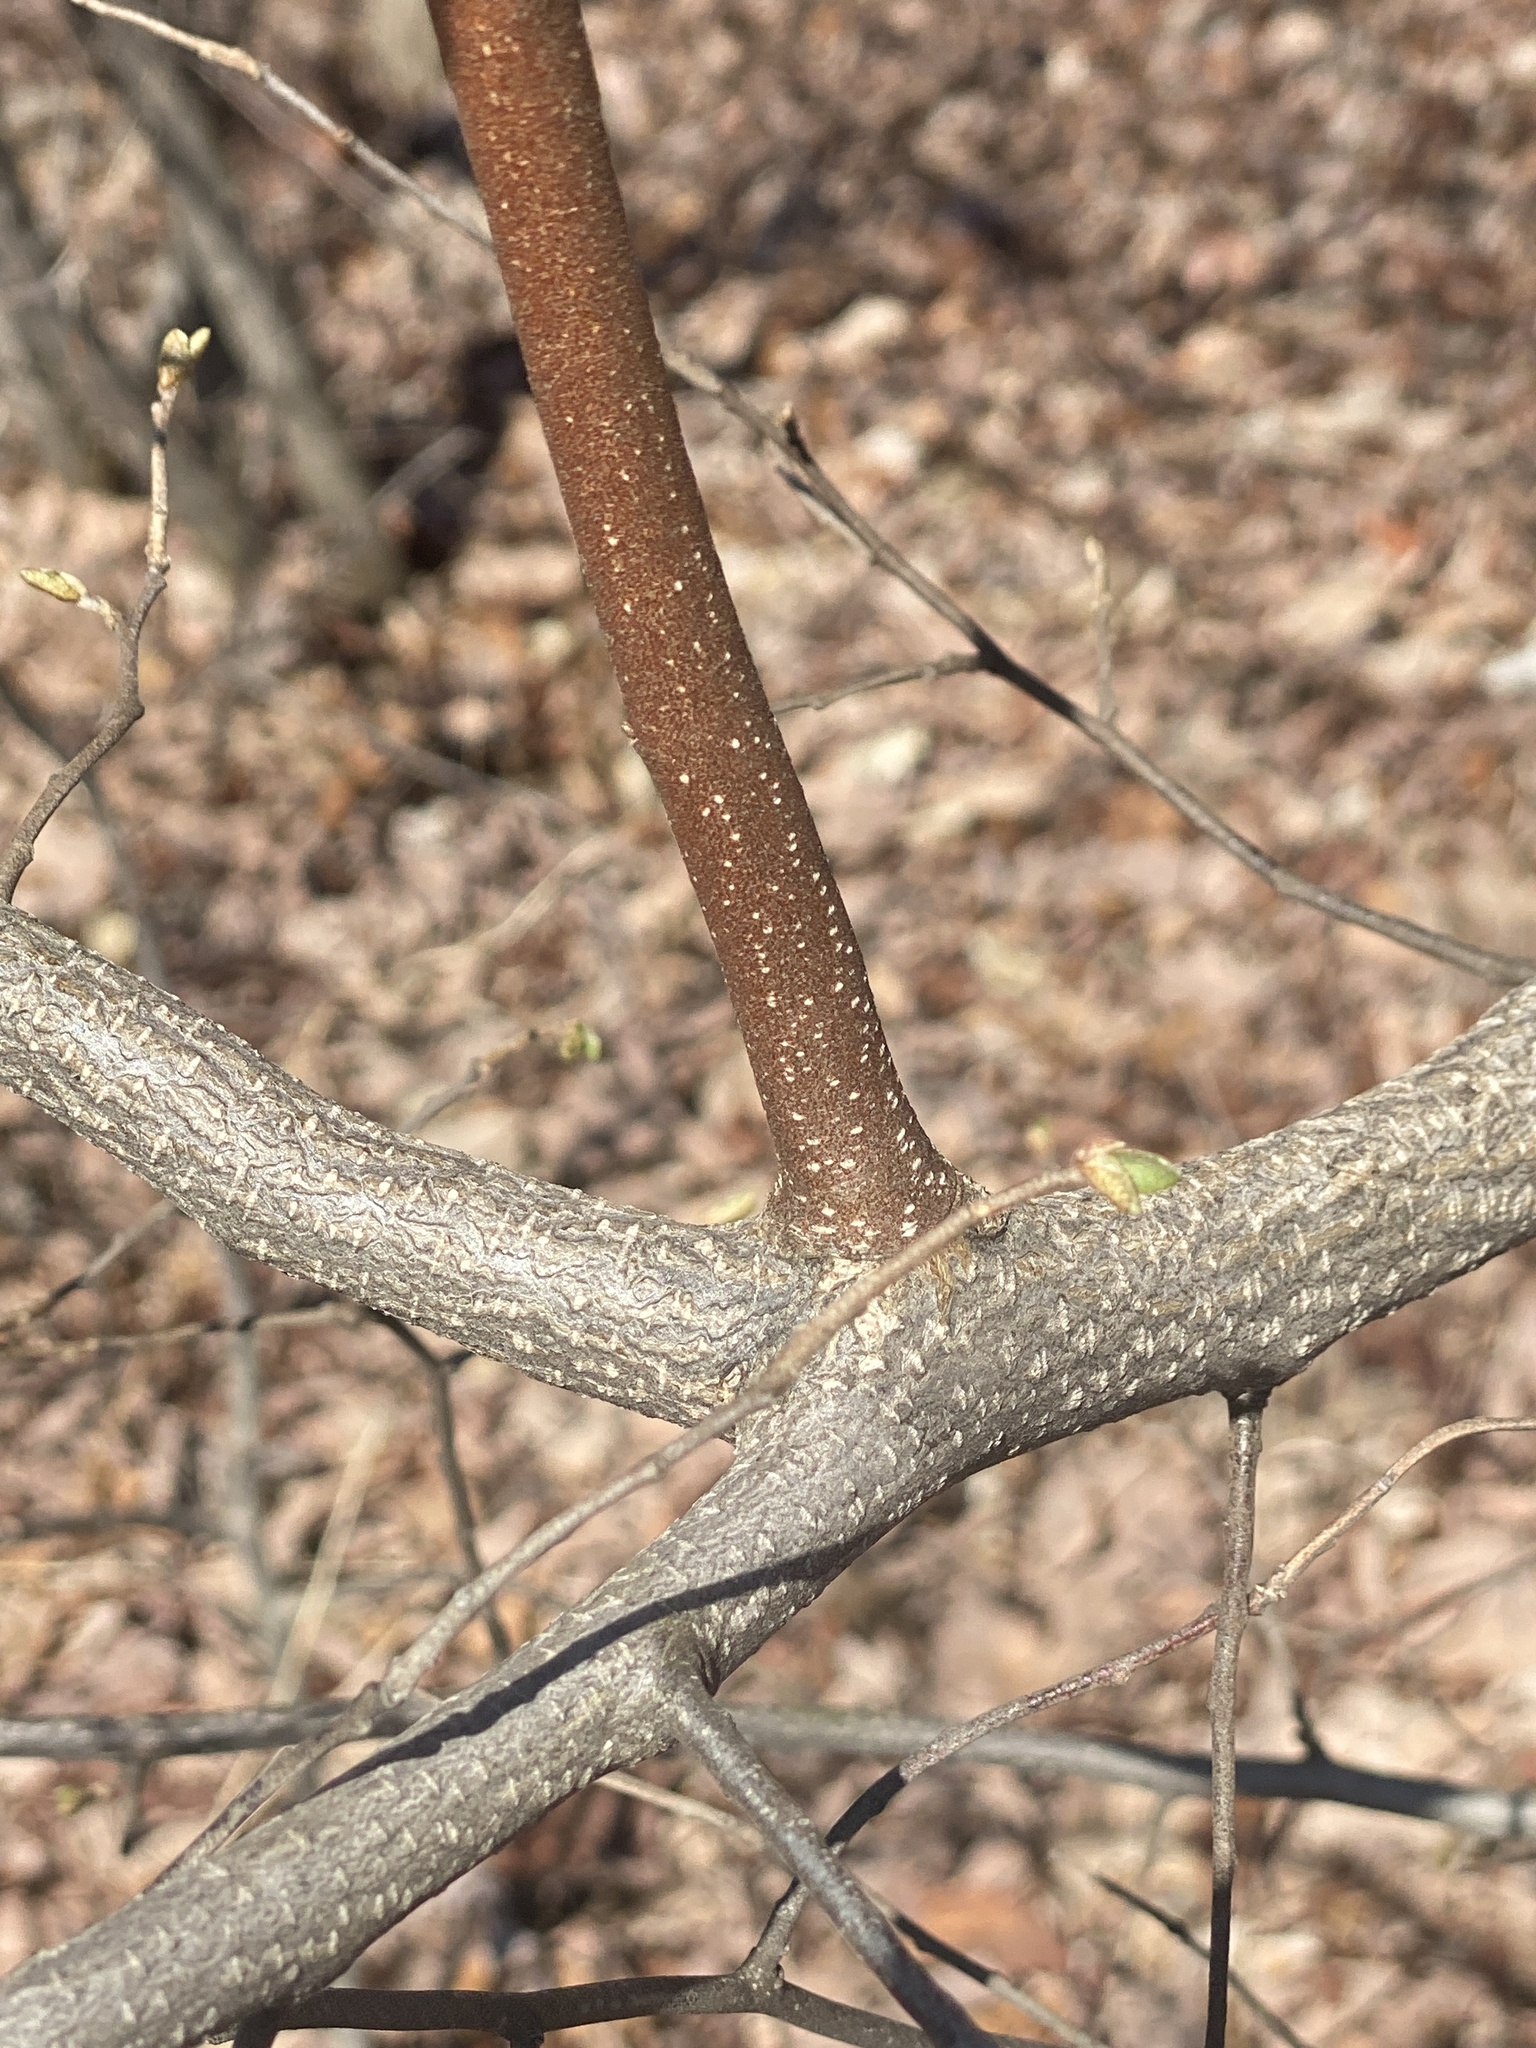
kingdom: Plantae
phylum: Tracheophyta
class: Magnoliopsida
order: Rosales
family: Elaeagnaceae
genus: Elaeagnus
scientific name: Elaeagnus umbellata
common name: Autumn olive
